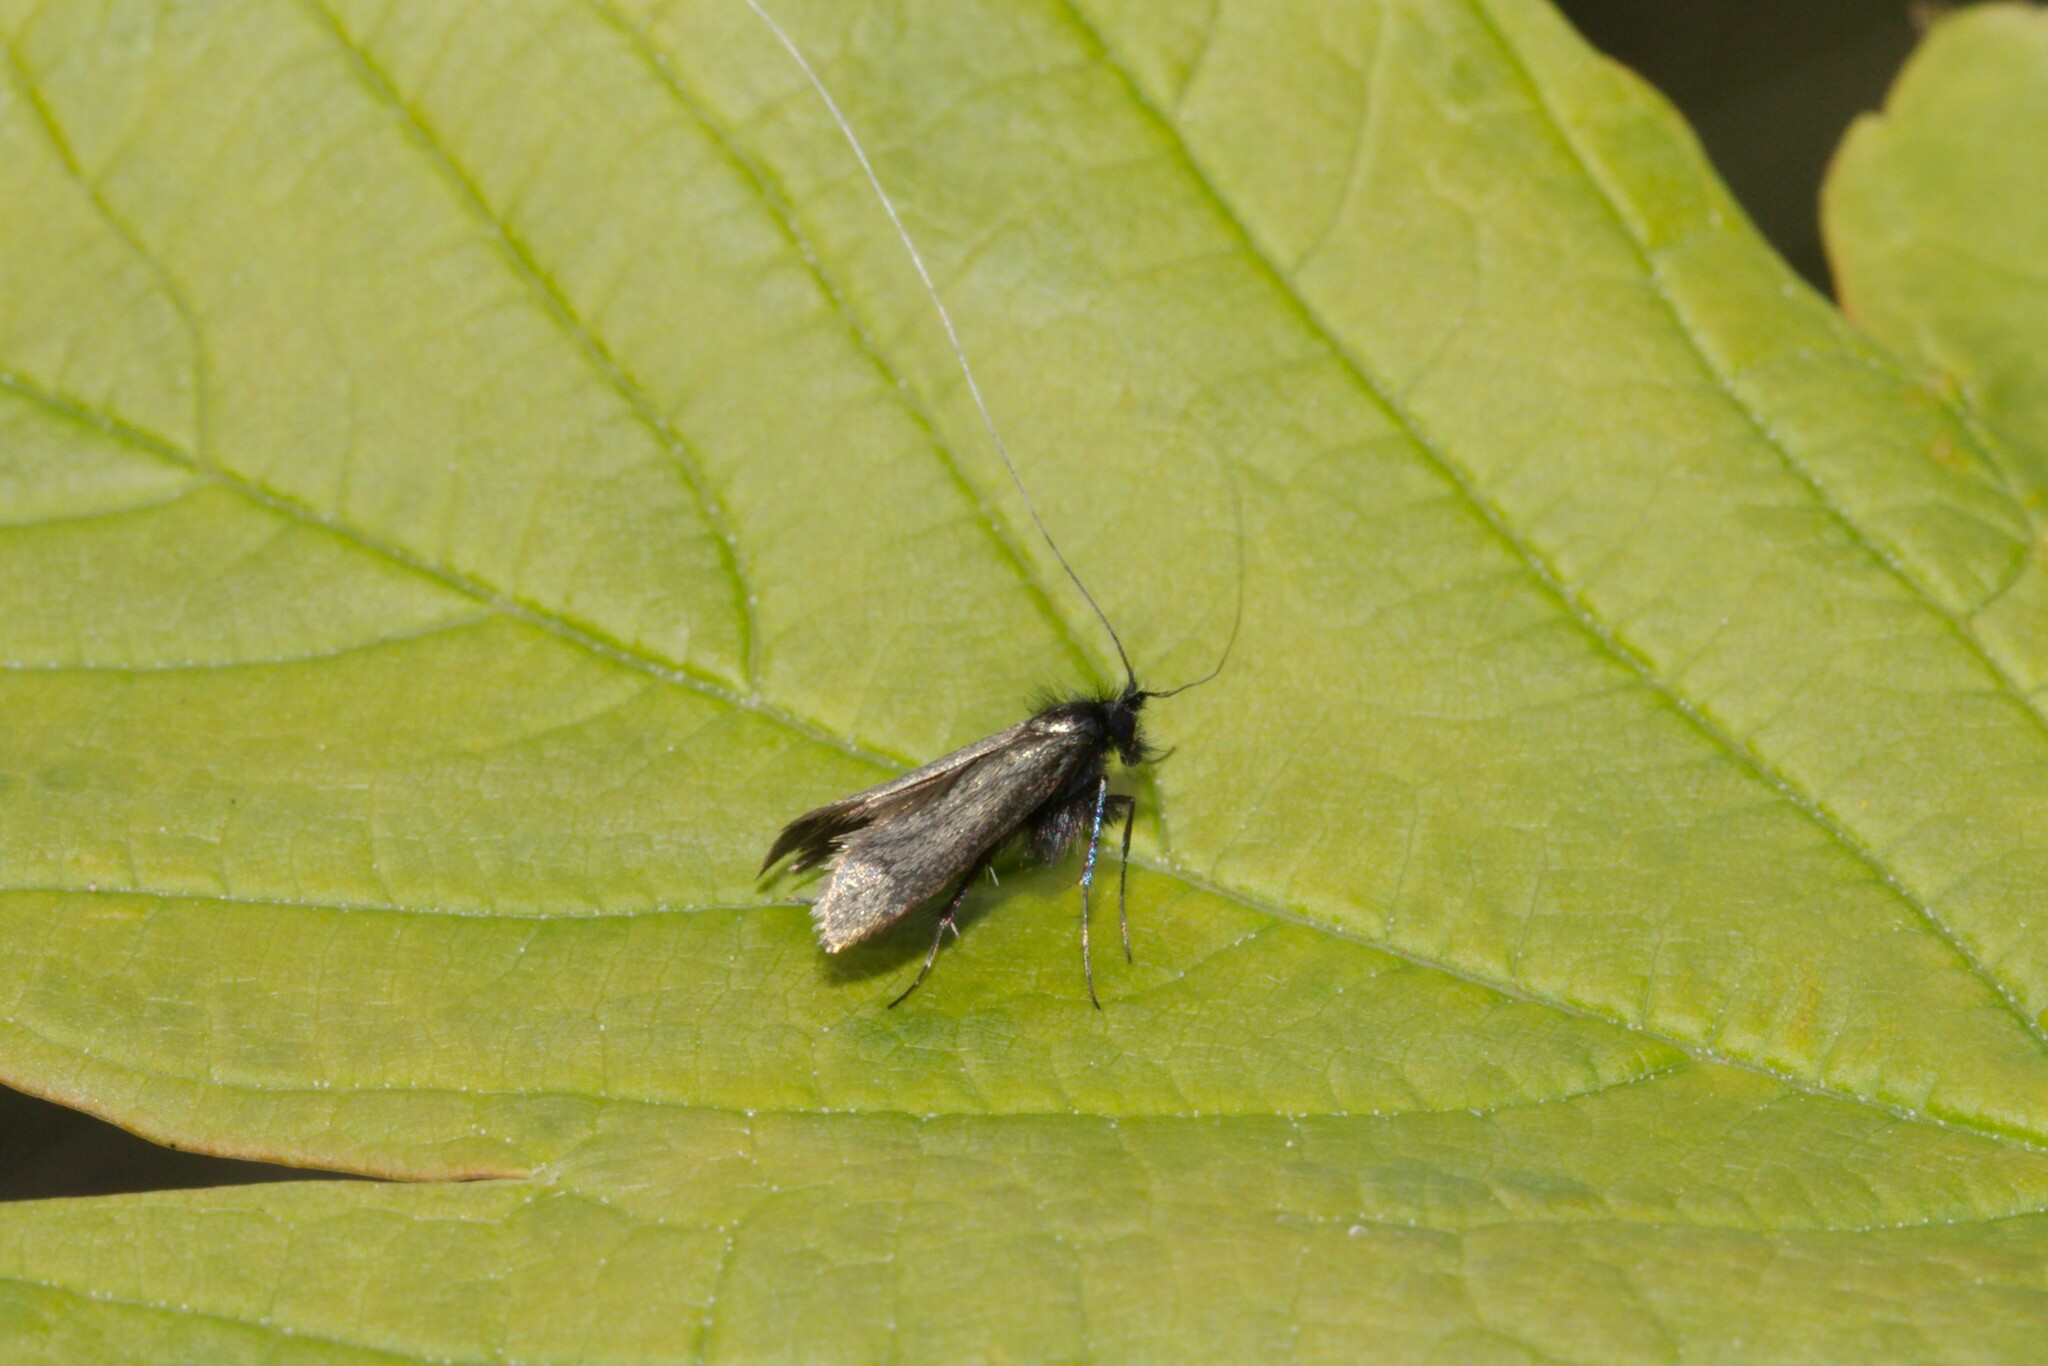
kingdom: Animalia
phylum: Arthropoda
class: Insecta
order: Lepidoptera
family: Adelidae
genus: Adela
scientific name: Adela viridella
